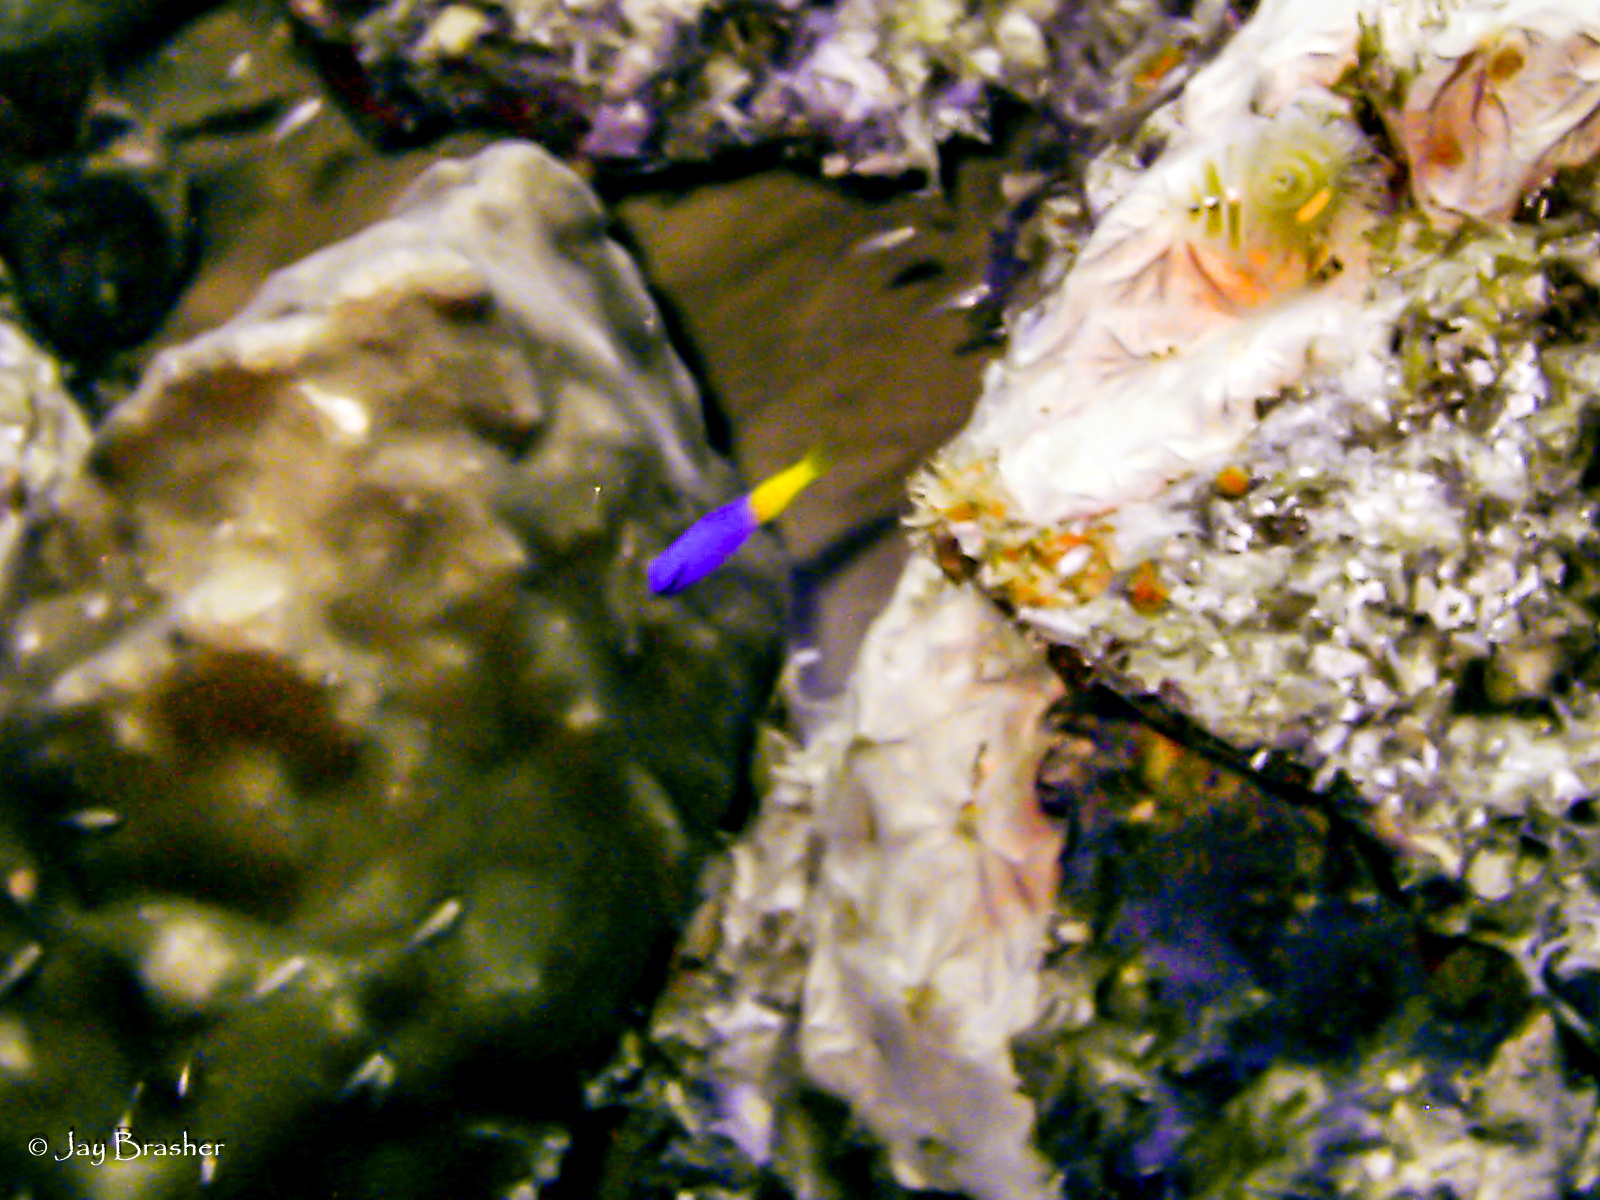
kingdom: Animalia
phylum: Chordata
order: Perciformes
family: Grammatidae
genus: Gramma
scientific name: Gramma loreto
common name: Fairy basslet
